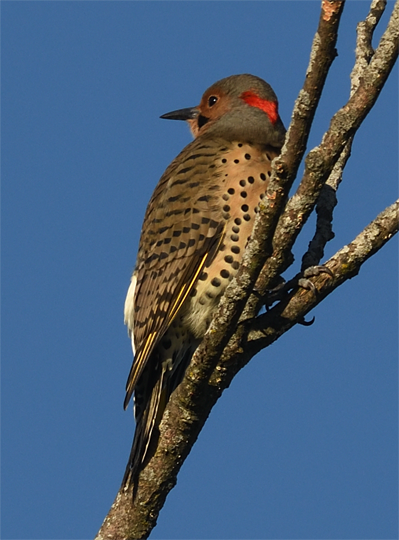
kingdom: Animalia
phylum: Chordata
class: Aves
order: Piciformes
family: Picidae
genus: Colaptes
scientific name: Colaptes auratus
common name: Northern flicker
